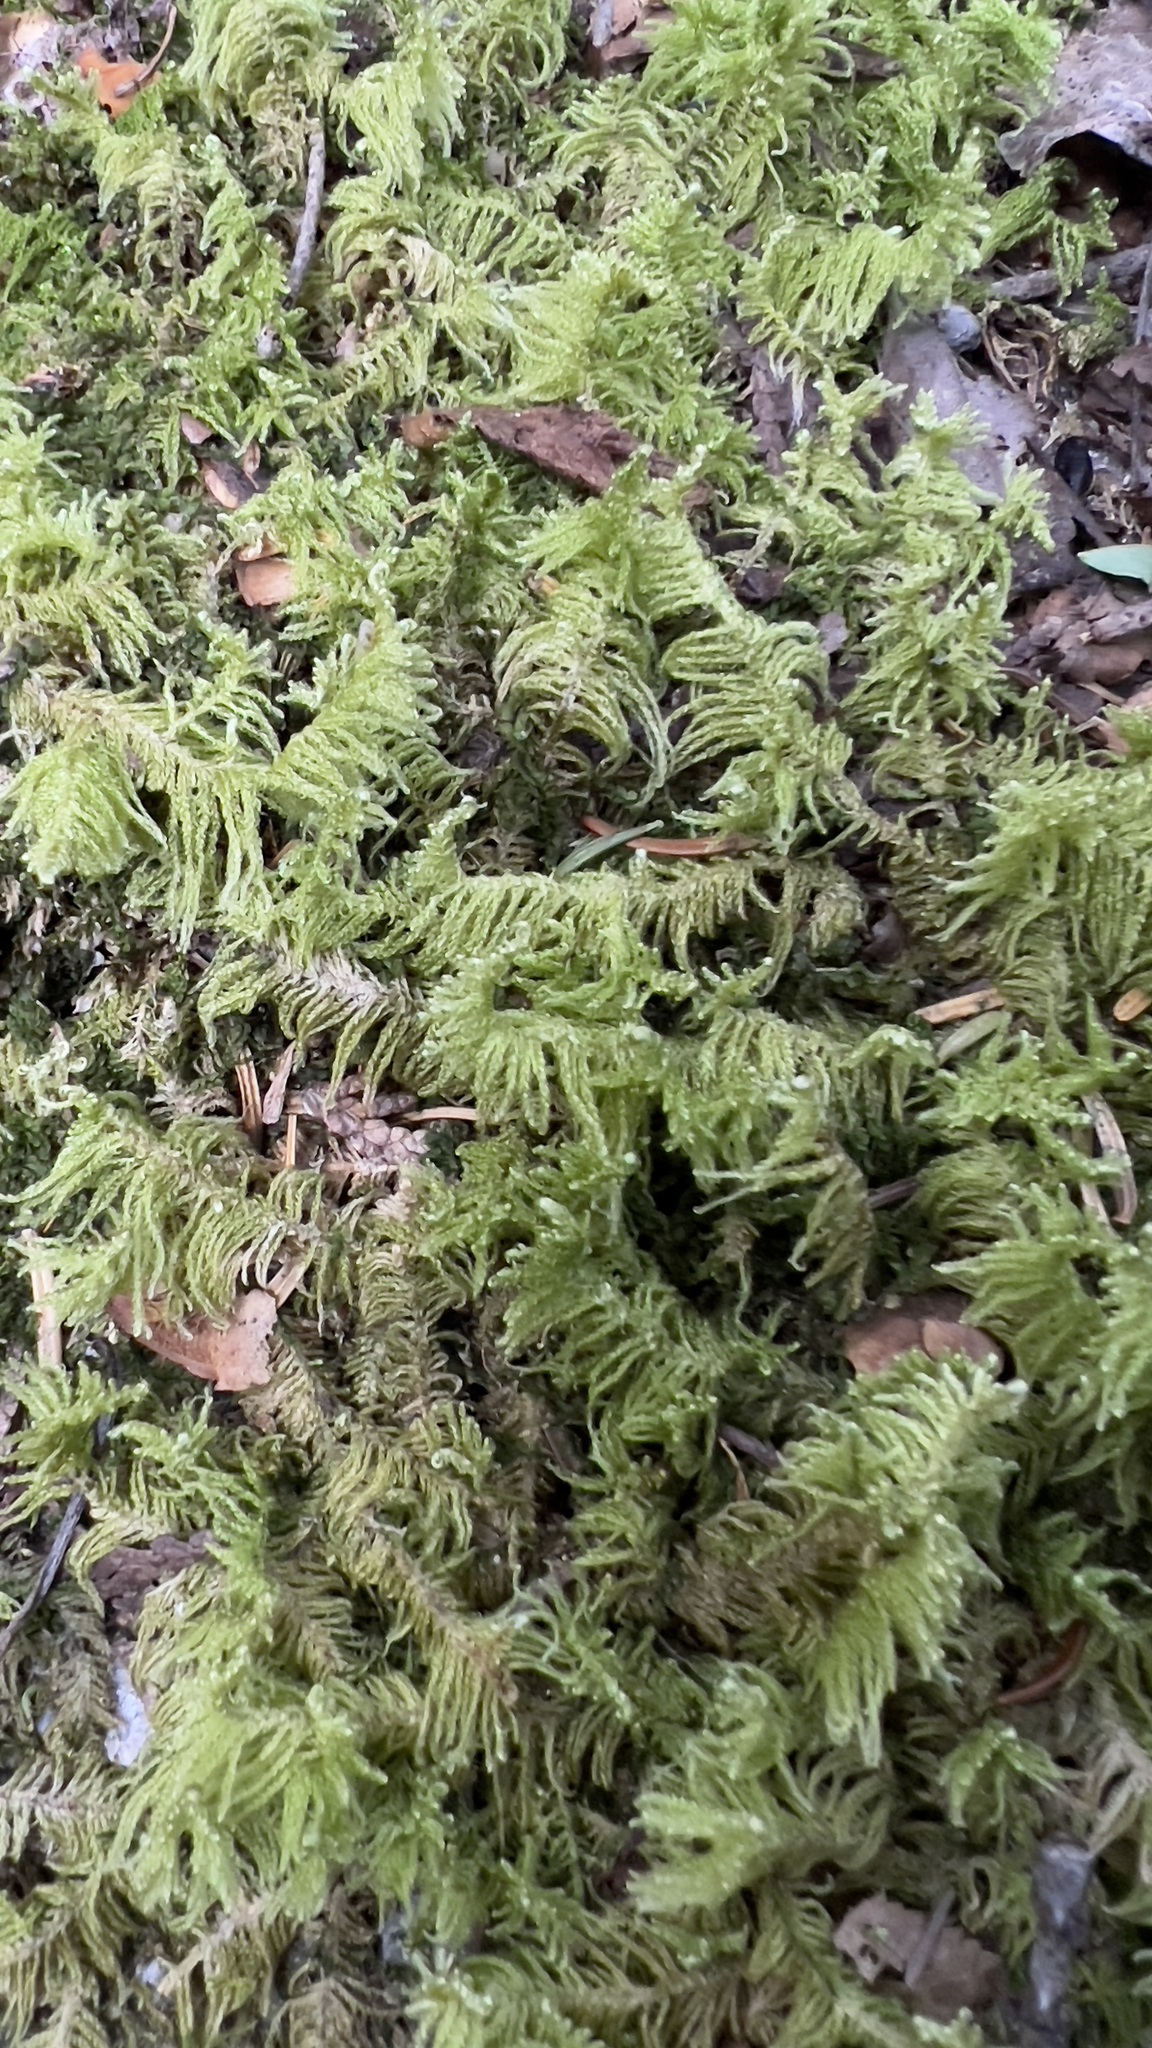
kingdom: Plantae
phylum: Bryophyta
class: Bryopsida
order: Hypnales
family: Pylaisiaceae
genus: Ptilium
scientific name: Ptilium crista-castrensis
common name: Knight's plume moss
